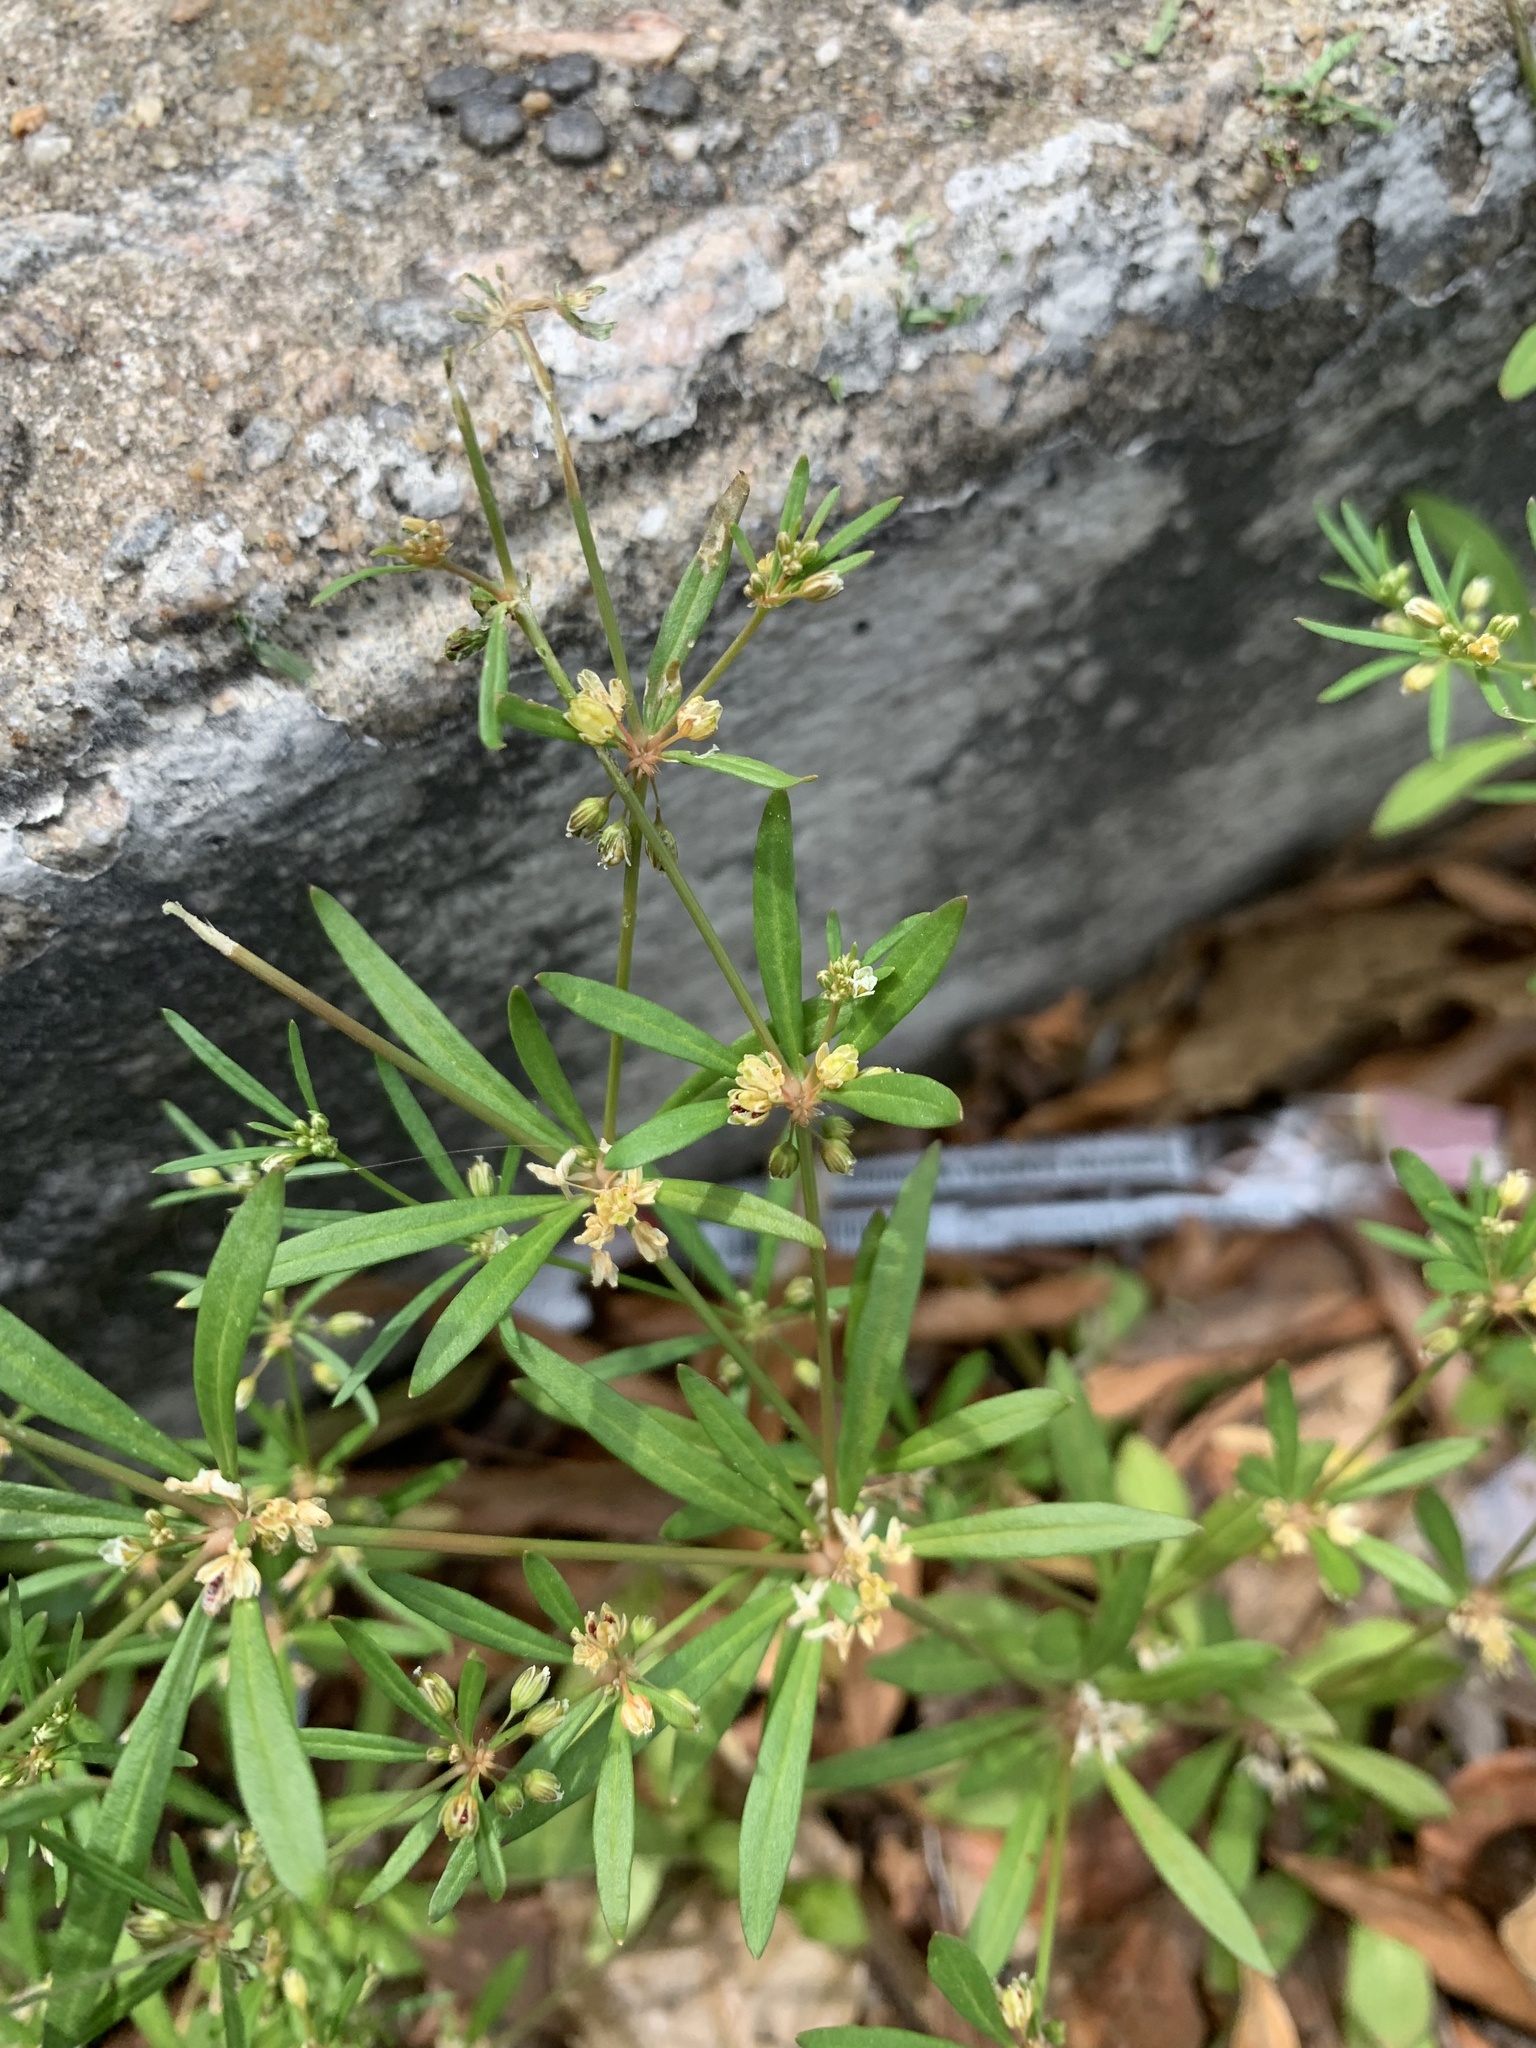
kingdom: Plantae
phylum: Tracheophyta
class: Magnoliopsida
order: Caryophyllales
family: Molluginaceae
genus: Mollugo
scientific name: Mollugo verticillata
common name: Green carpetweed
